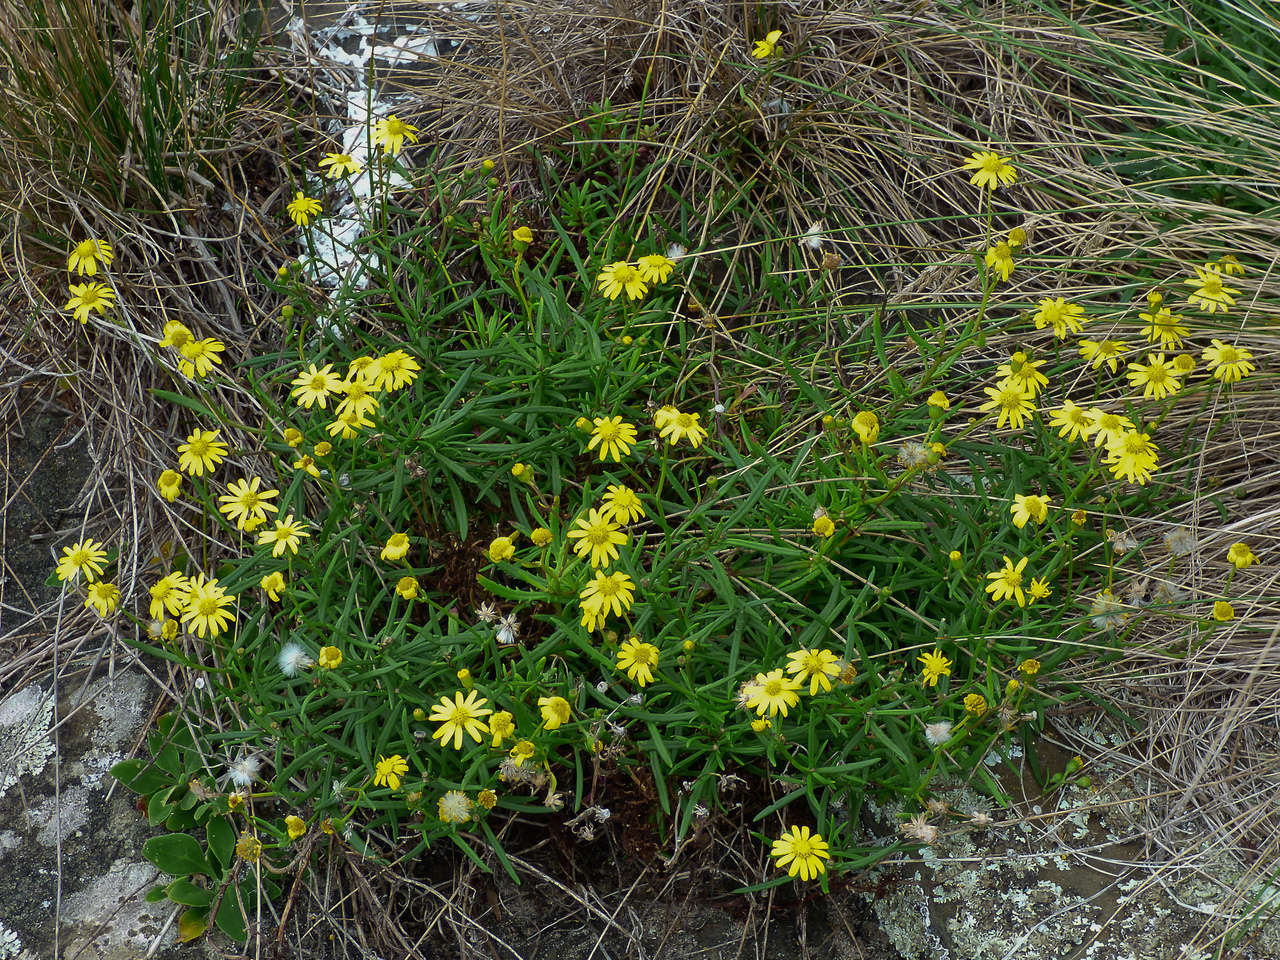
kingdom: Plantae
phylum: Tracheophyta
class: Magnoliopsida
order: Asterales
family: Asteraceae
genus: Senecio
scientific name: Senecio pinnatifolius
